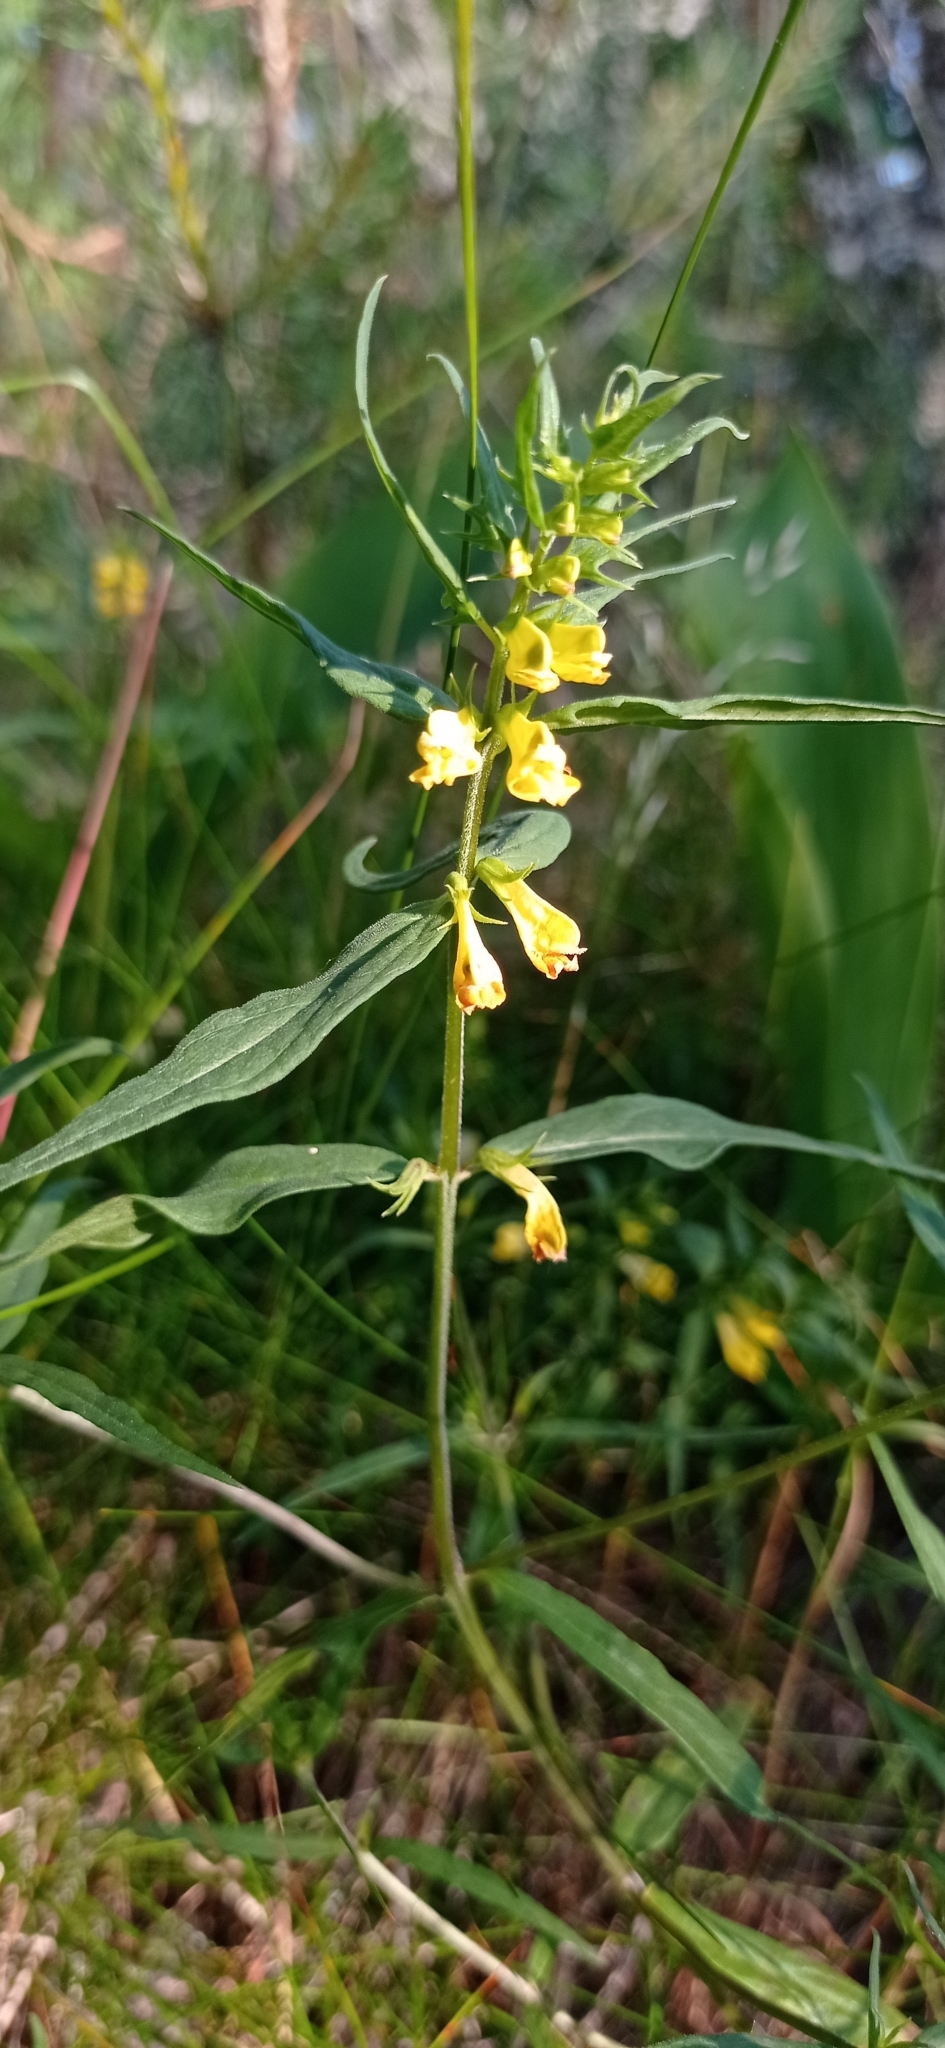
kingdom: Plantae
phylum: Tracheophyta
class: Magnoliopsida
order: Lamiales
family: Orobanchaceae
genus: Melampyrum
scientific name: Melampyrum pratense
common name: Common cow-wheat
